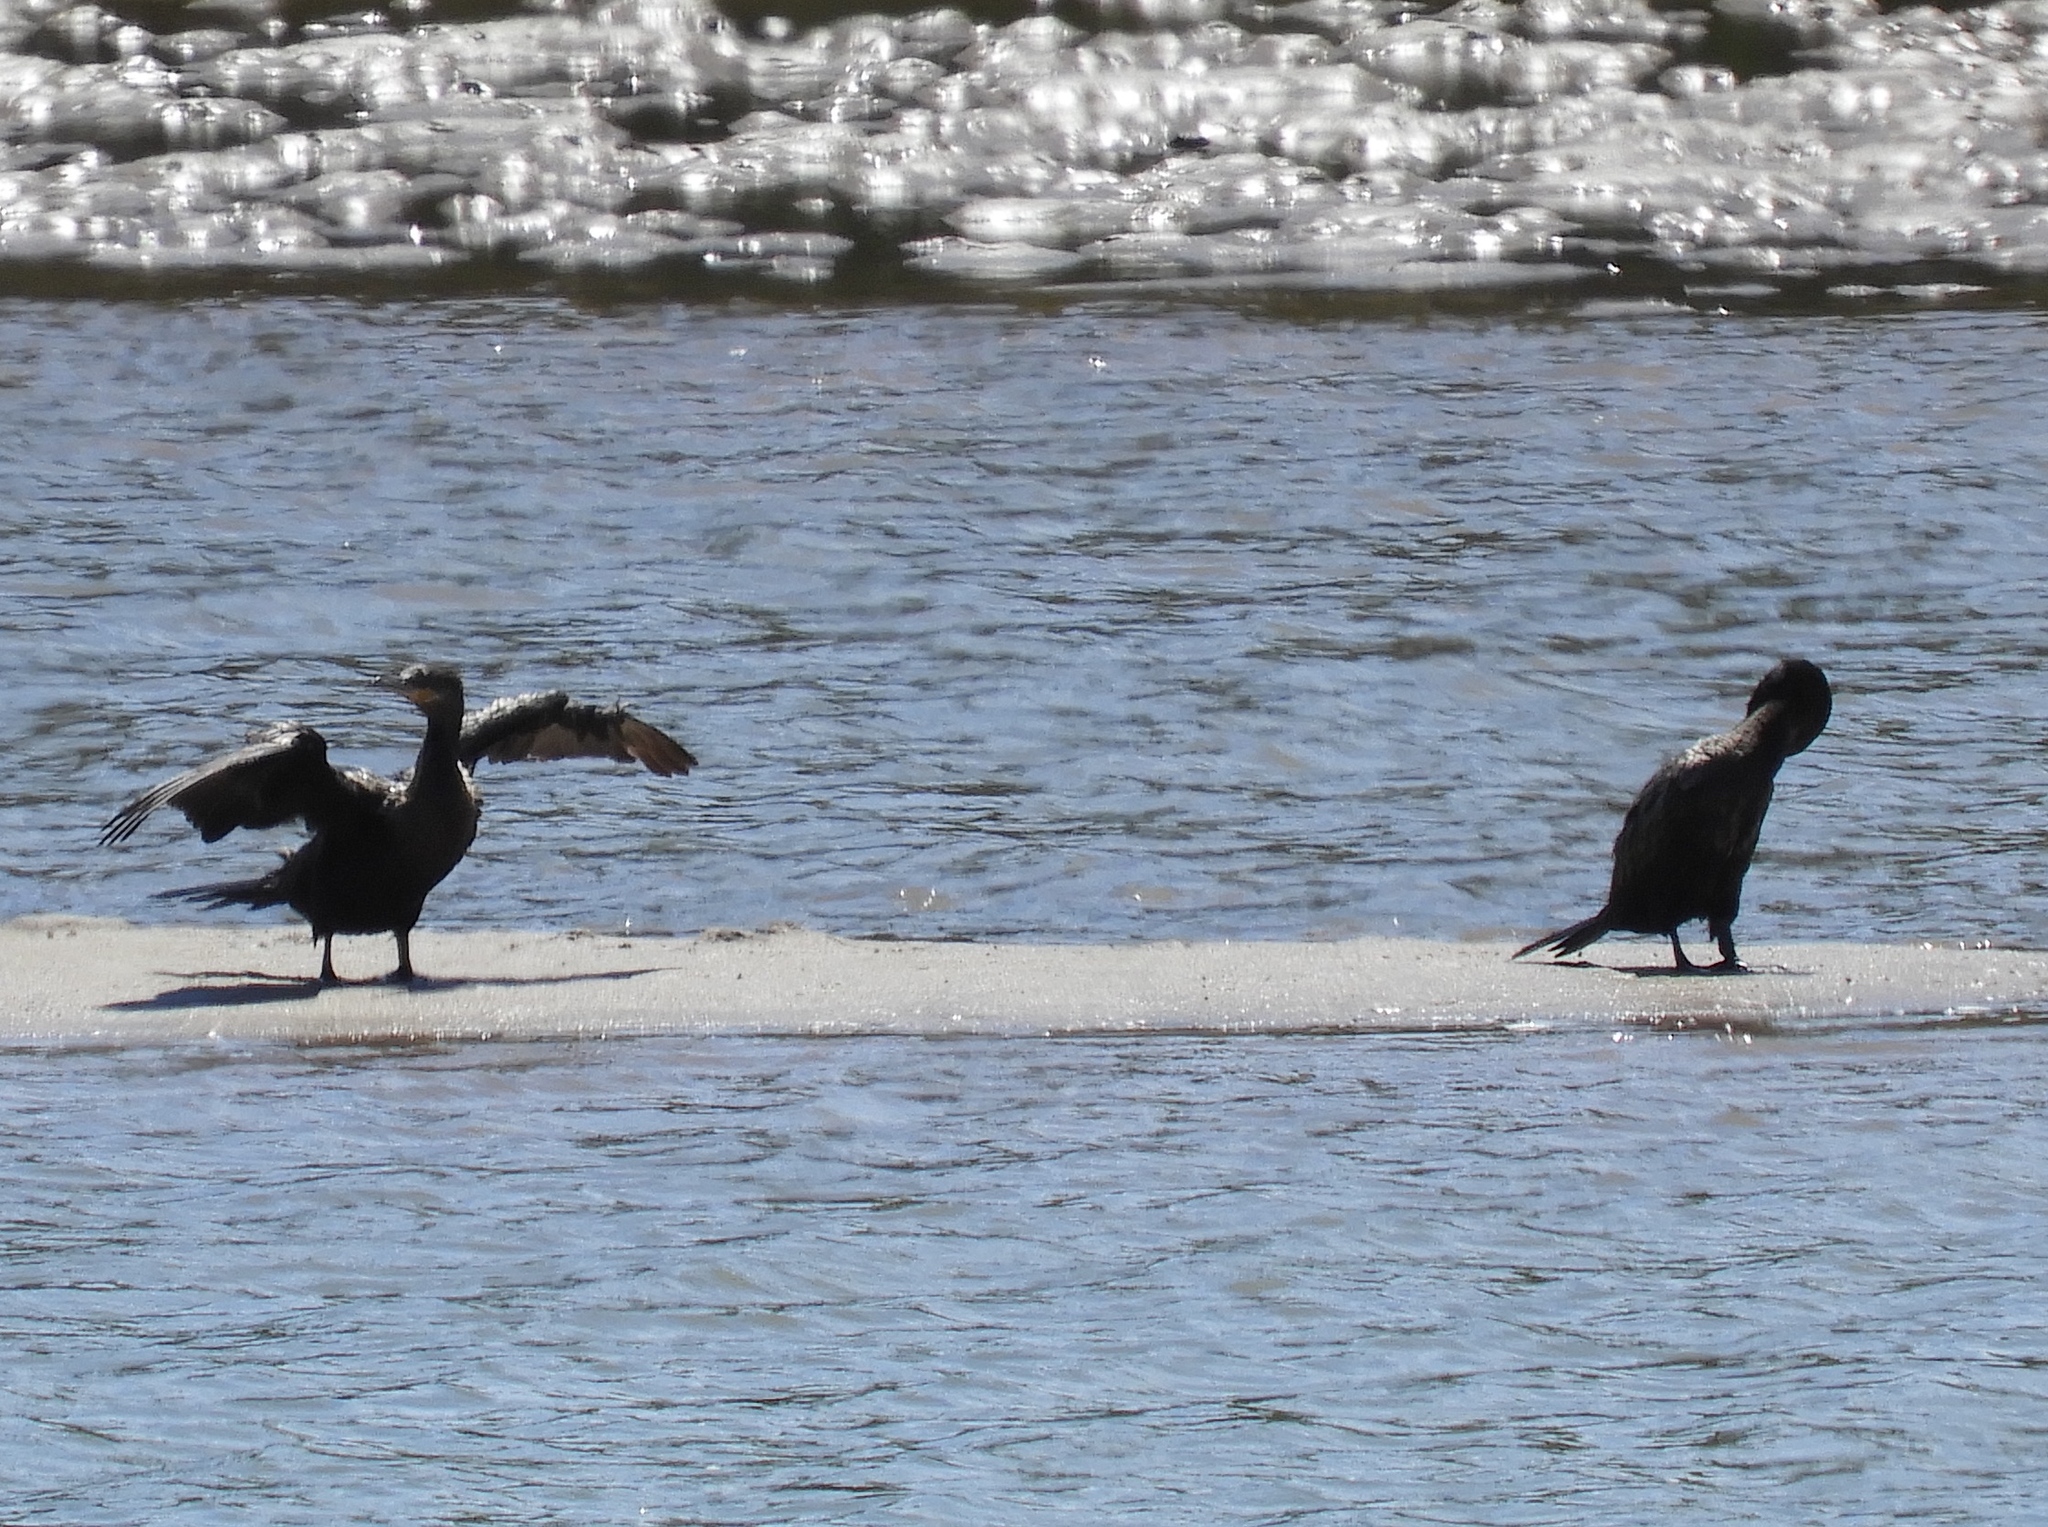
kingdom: Animalia
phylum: Chordata
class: Aves
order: Suliformes
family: Phalacrocoracidae
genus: Phalacrocorax
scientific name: Phalacrocorax brasilianus
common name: Neotropic cormorant
